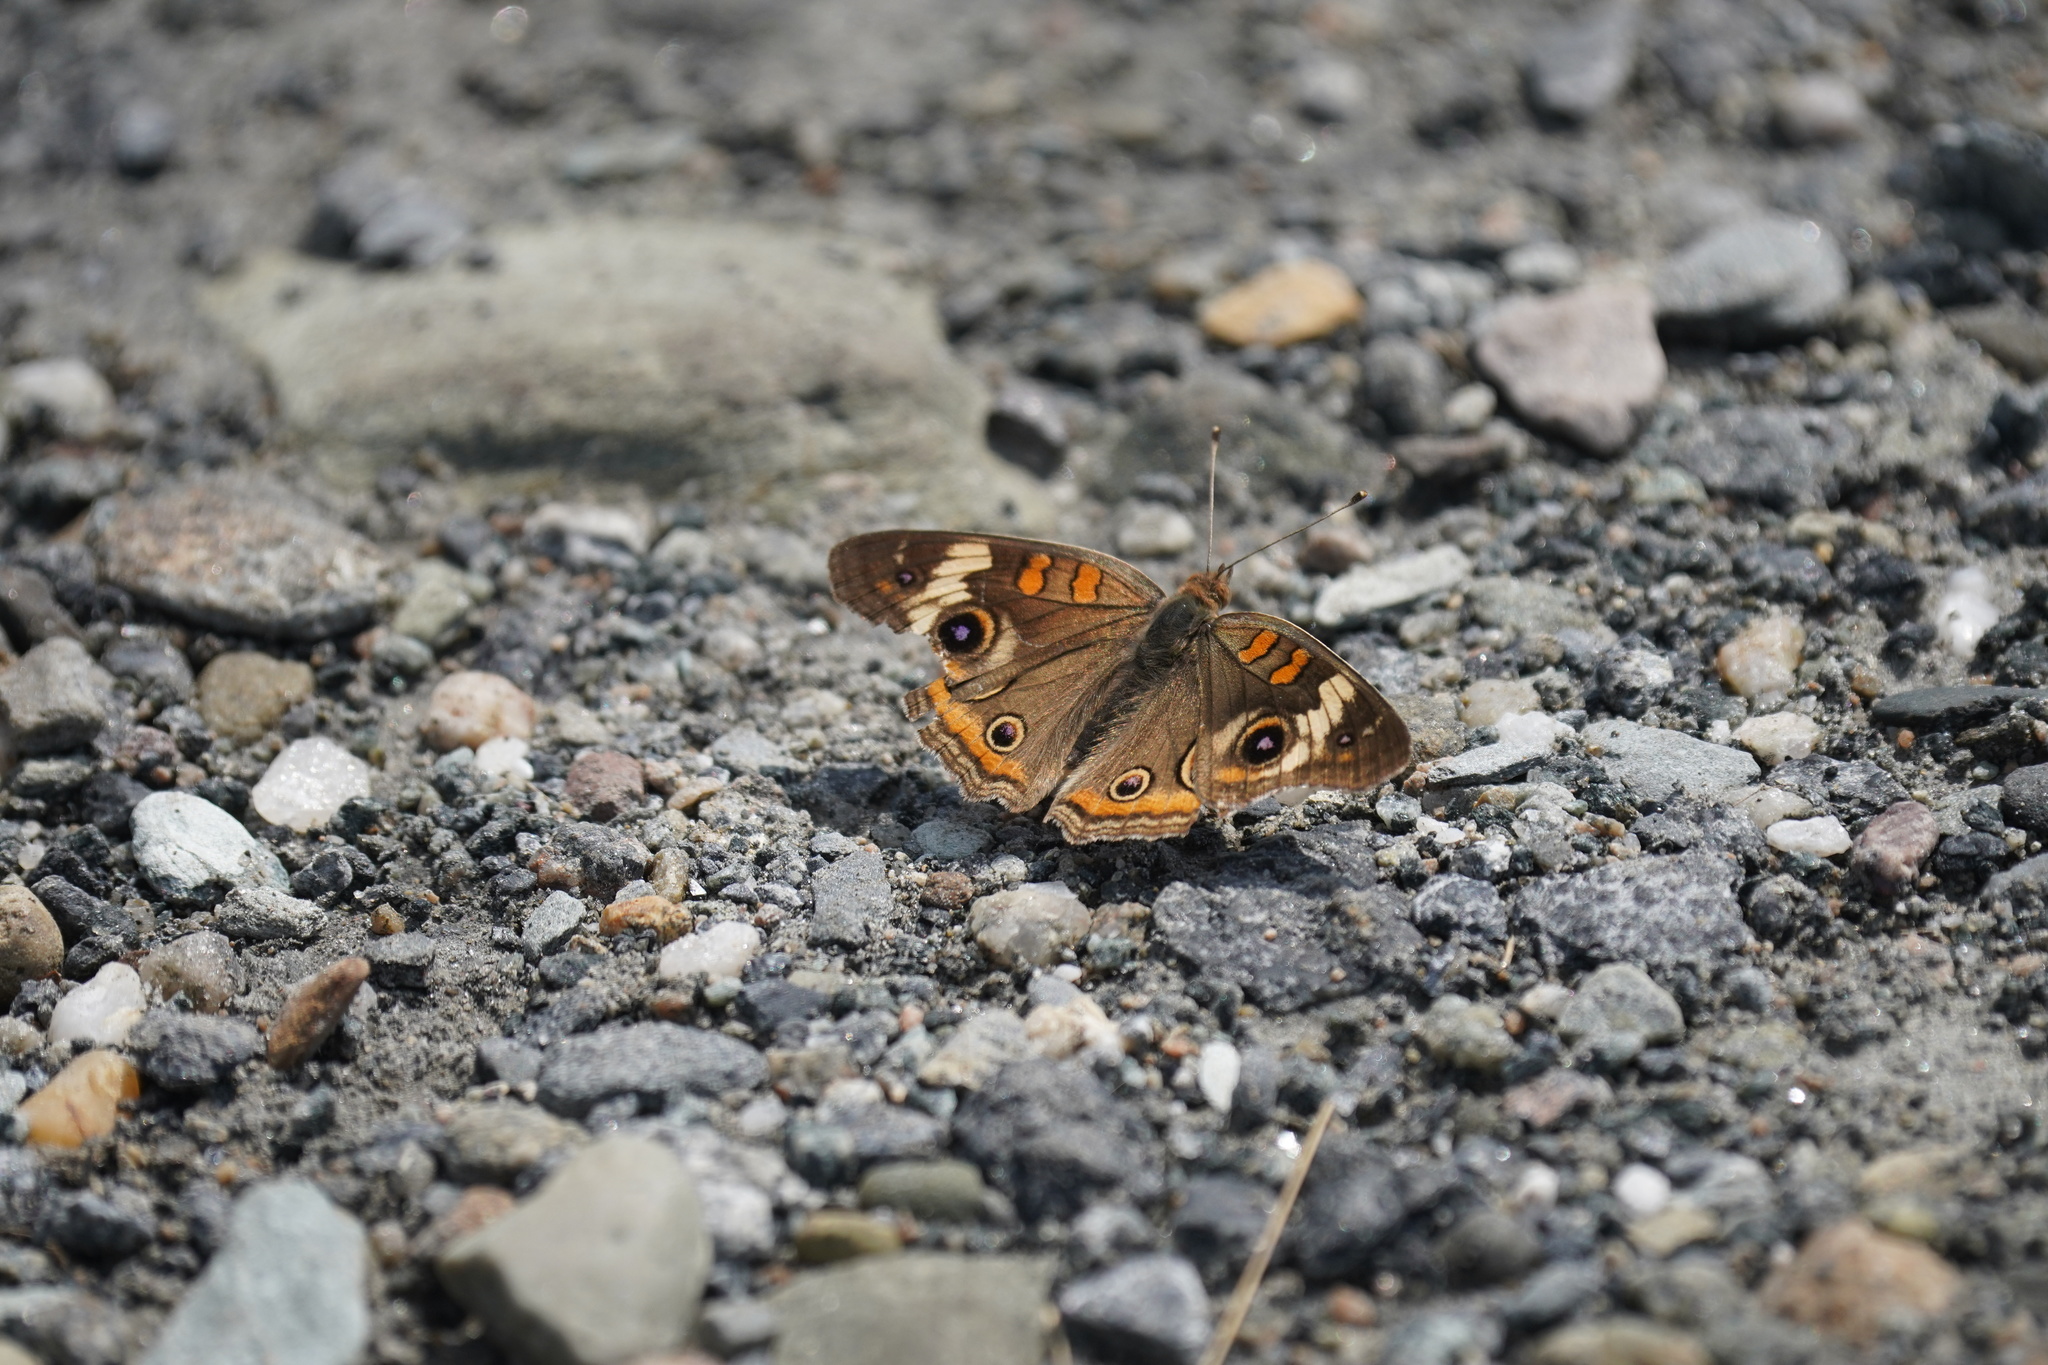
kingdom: Animalia
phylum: Arthropoda
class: Insecta
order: Lepidoptera
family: Nymphalidae
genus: Junonia
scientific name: Junonia coenia
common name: Common buckeye
